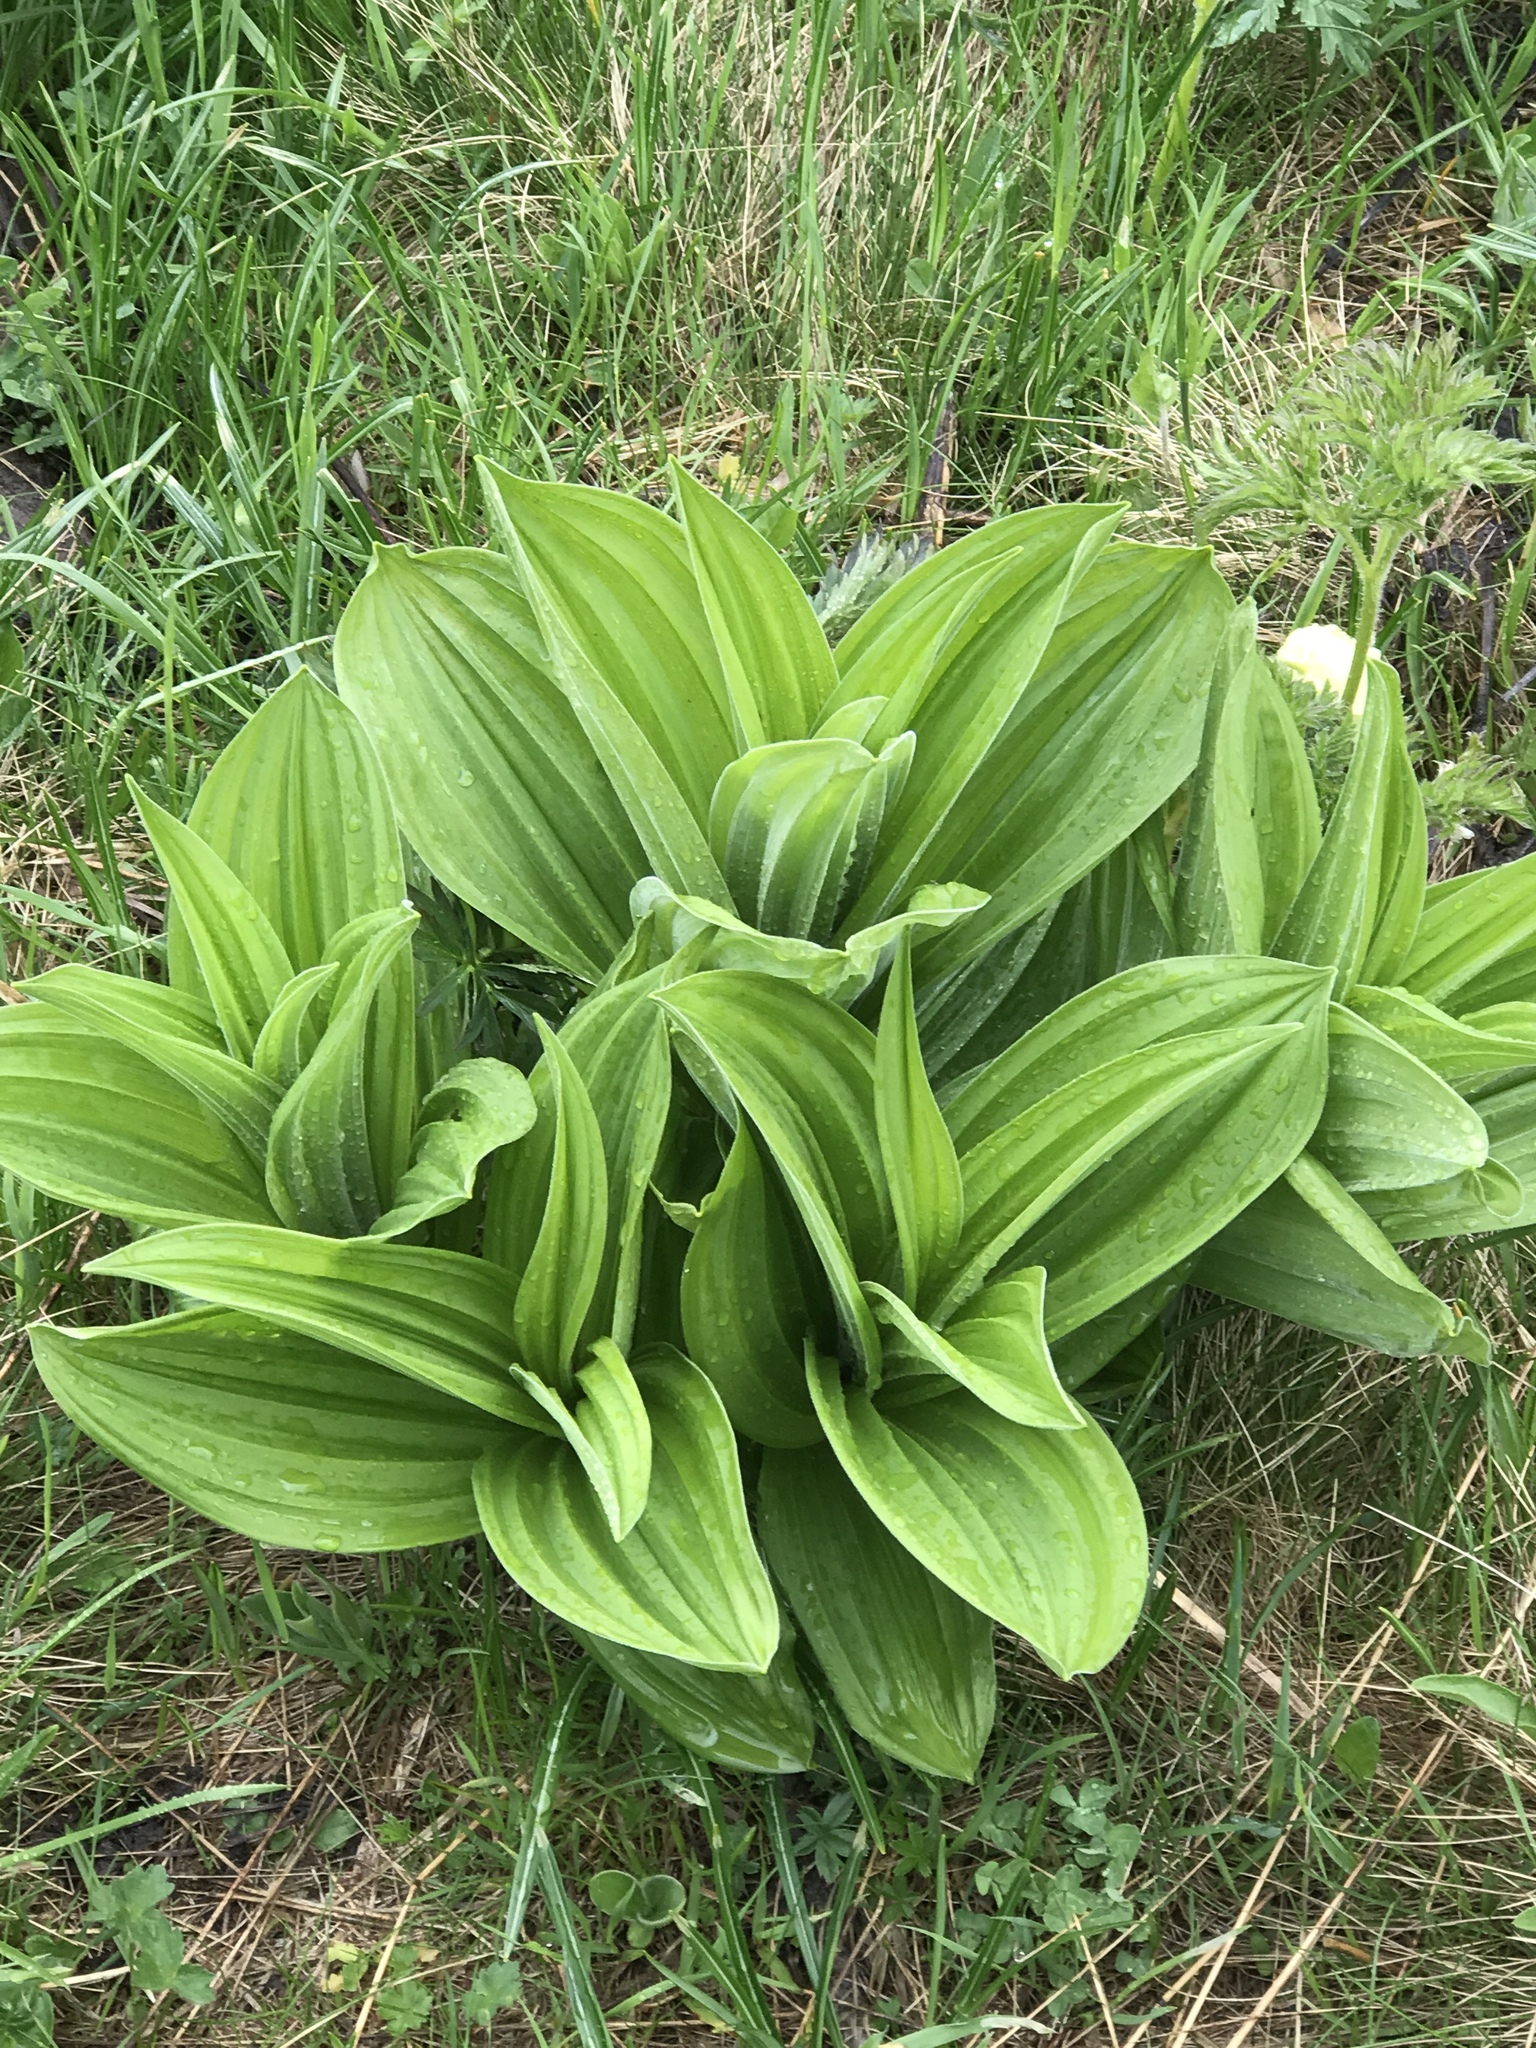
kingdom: Plantae
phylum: Tracheophyta
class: Liliopsida
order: Liliales
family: Melanthiaceae
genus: Veratrum
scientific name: Veratrum album
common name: White veratrum
